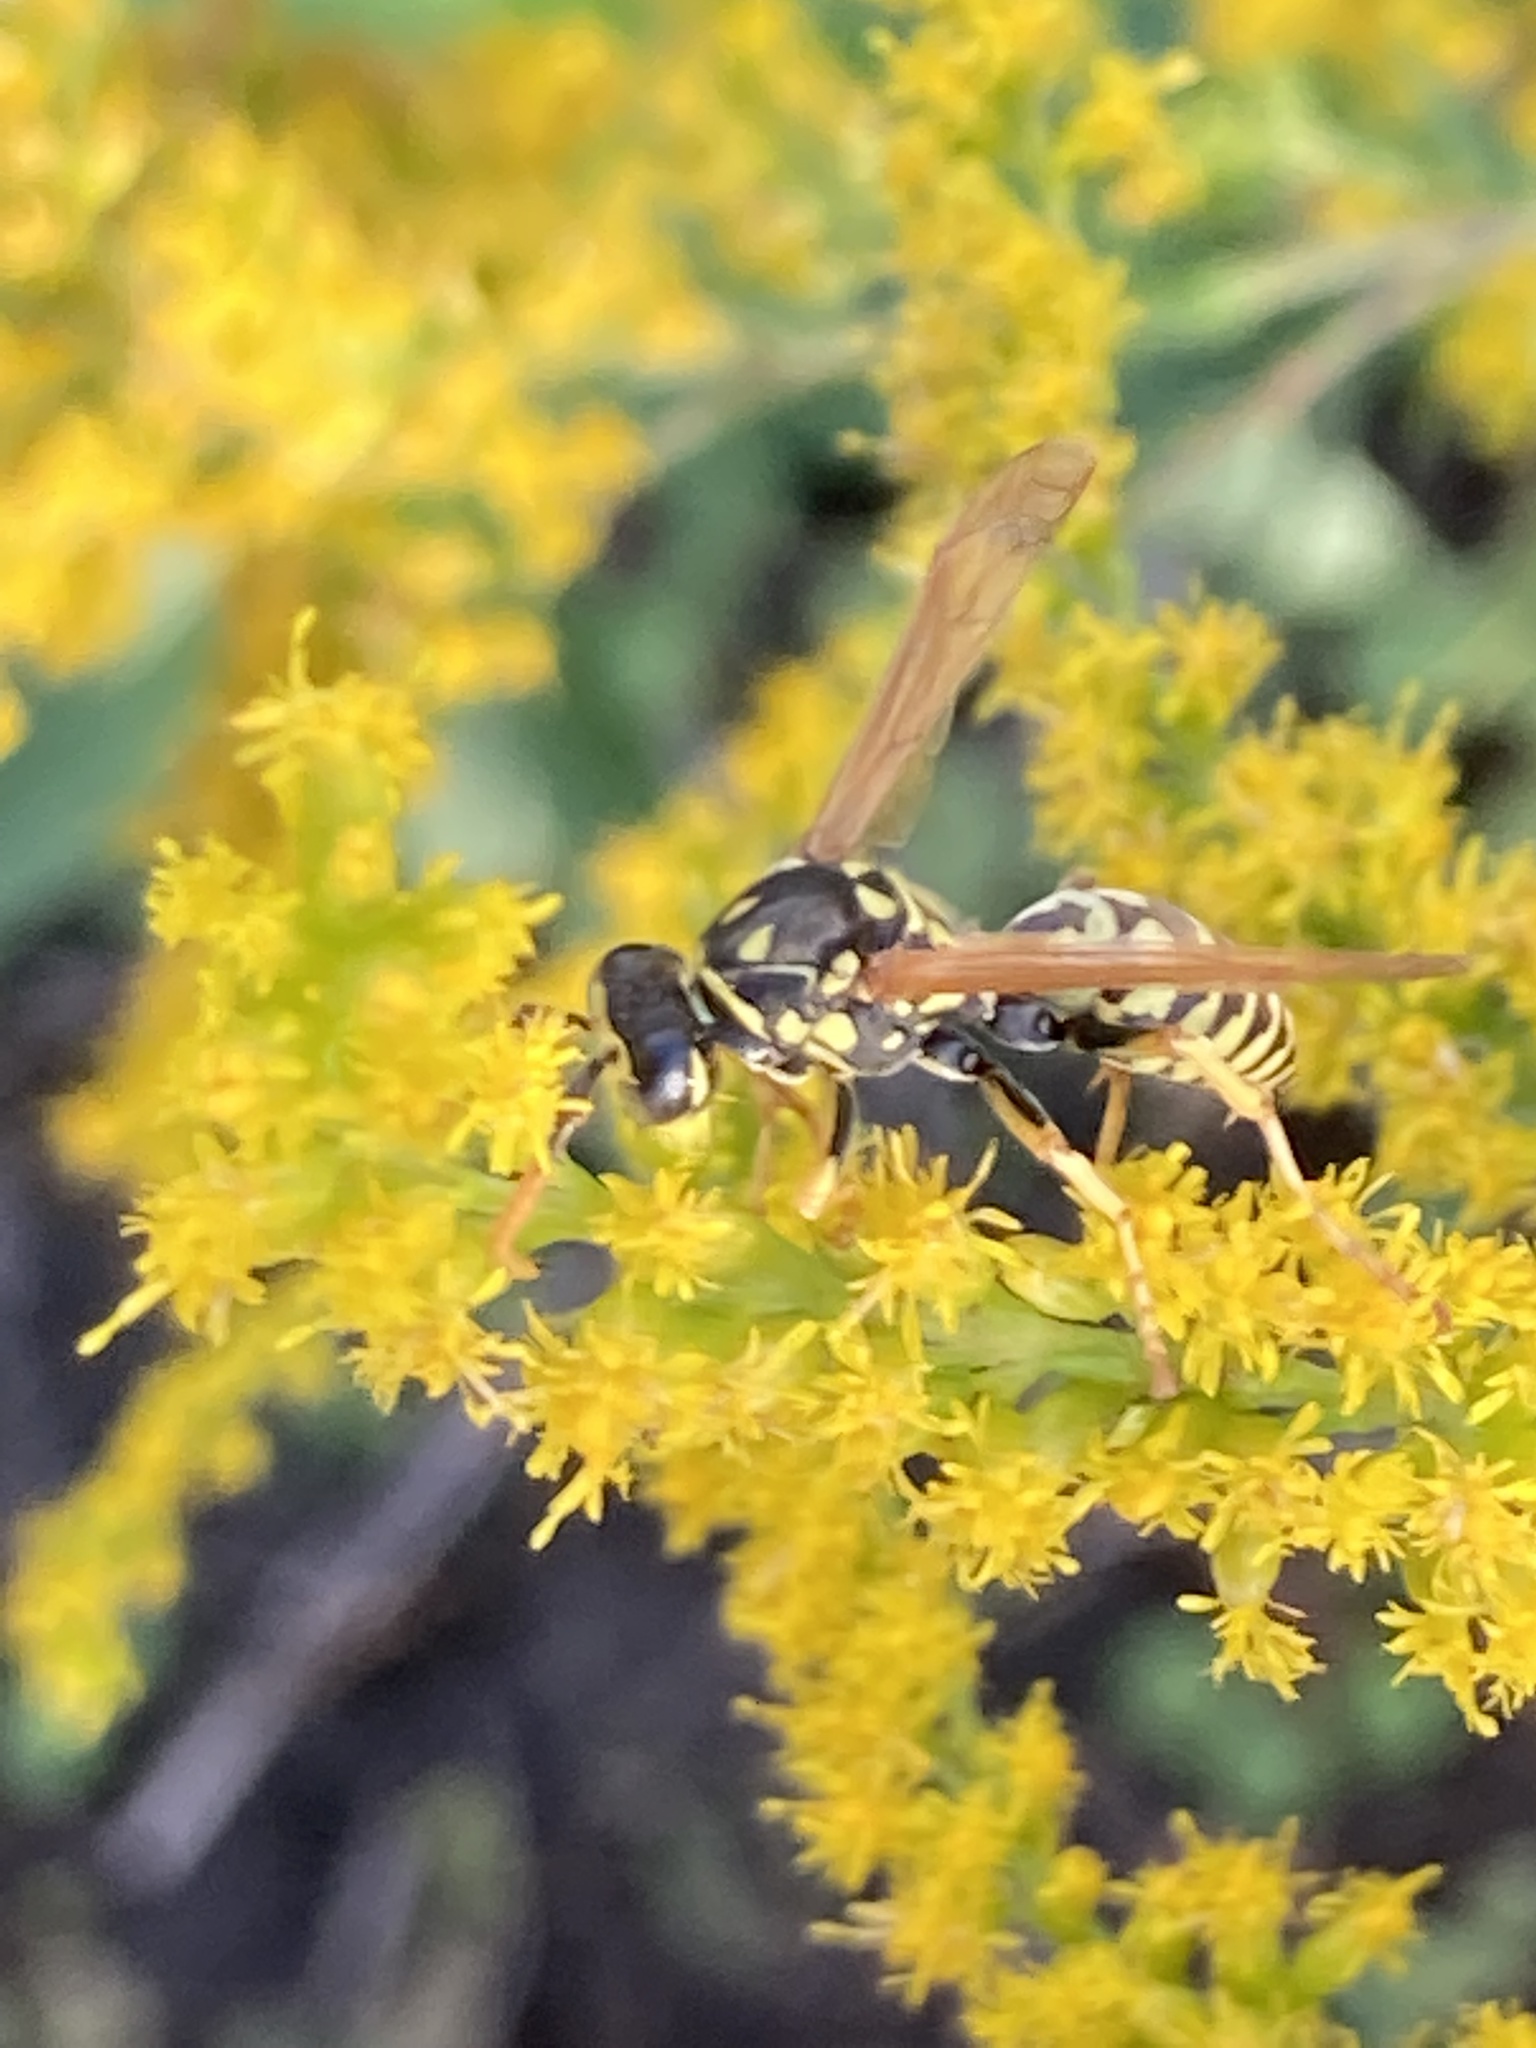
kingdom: Animalia
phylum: Arthropoda
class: Insecta
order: Hymenoptera
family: Eumenidae
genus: Polistes
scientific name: Polistes dominula
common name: Paper wasp
